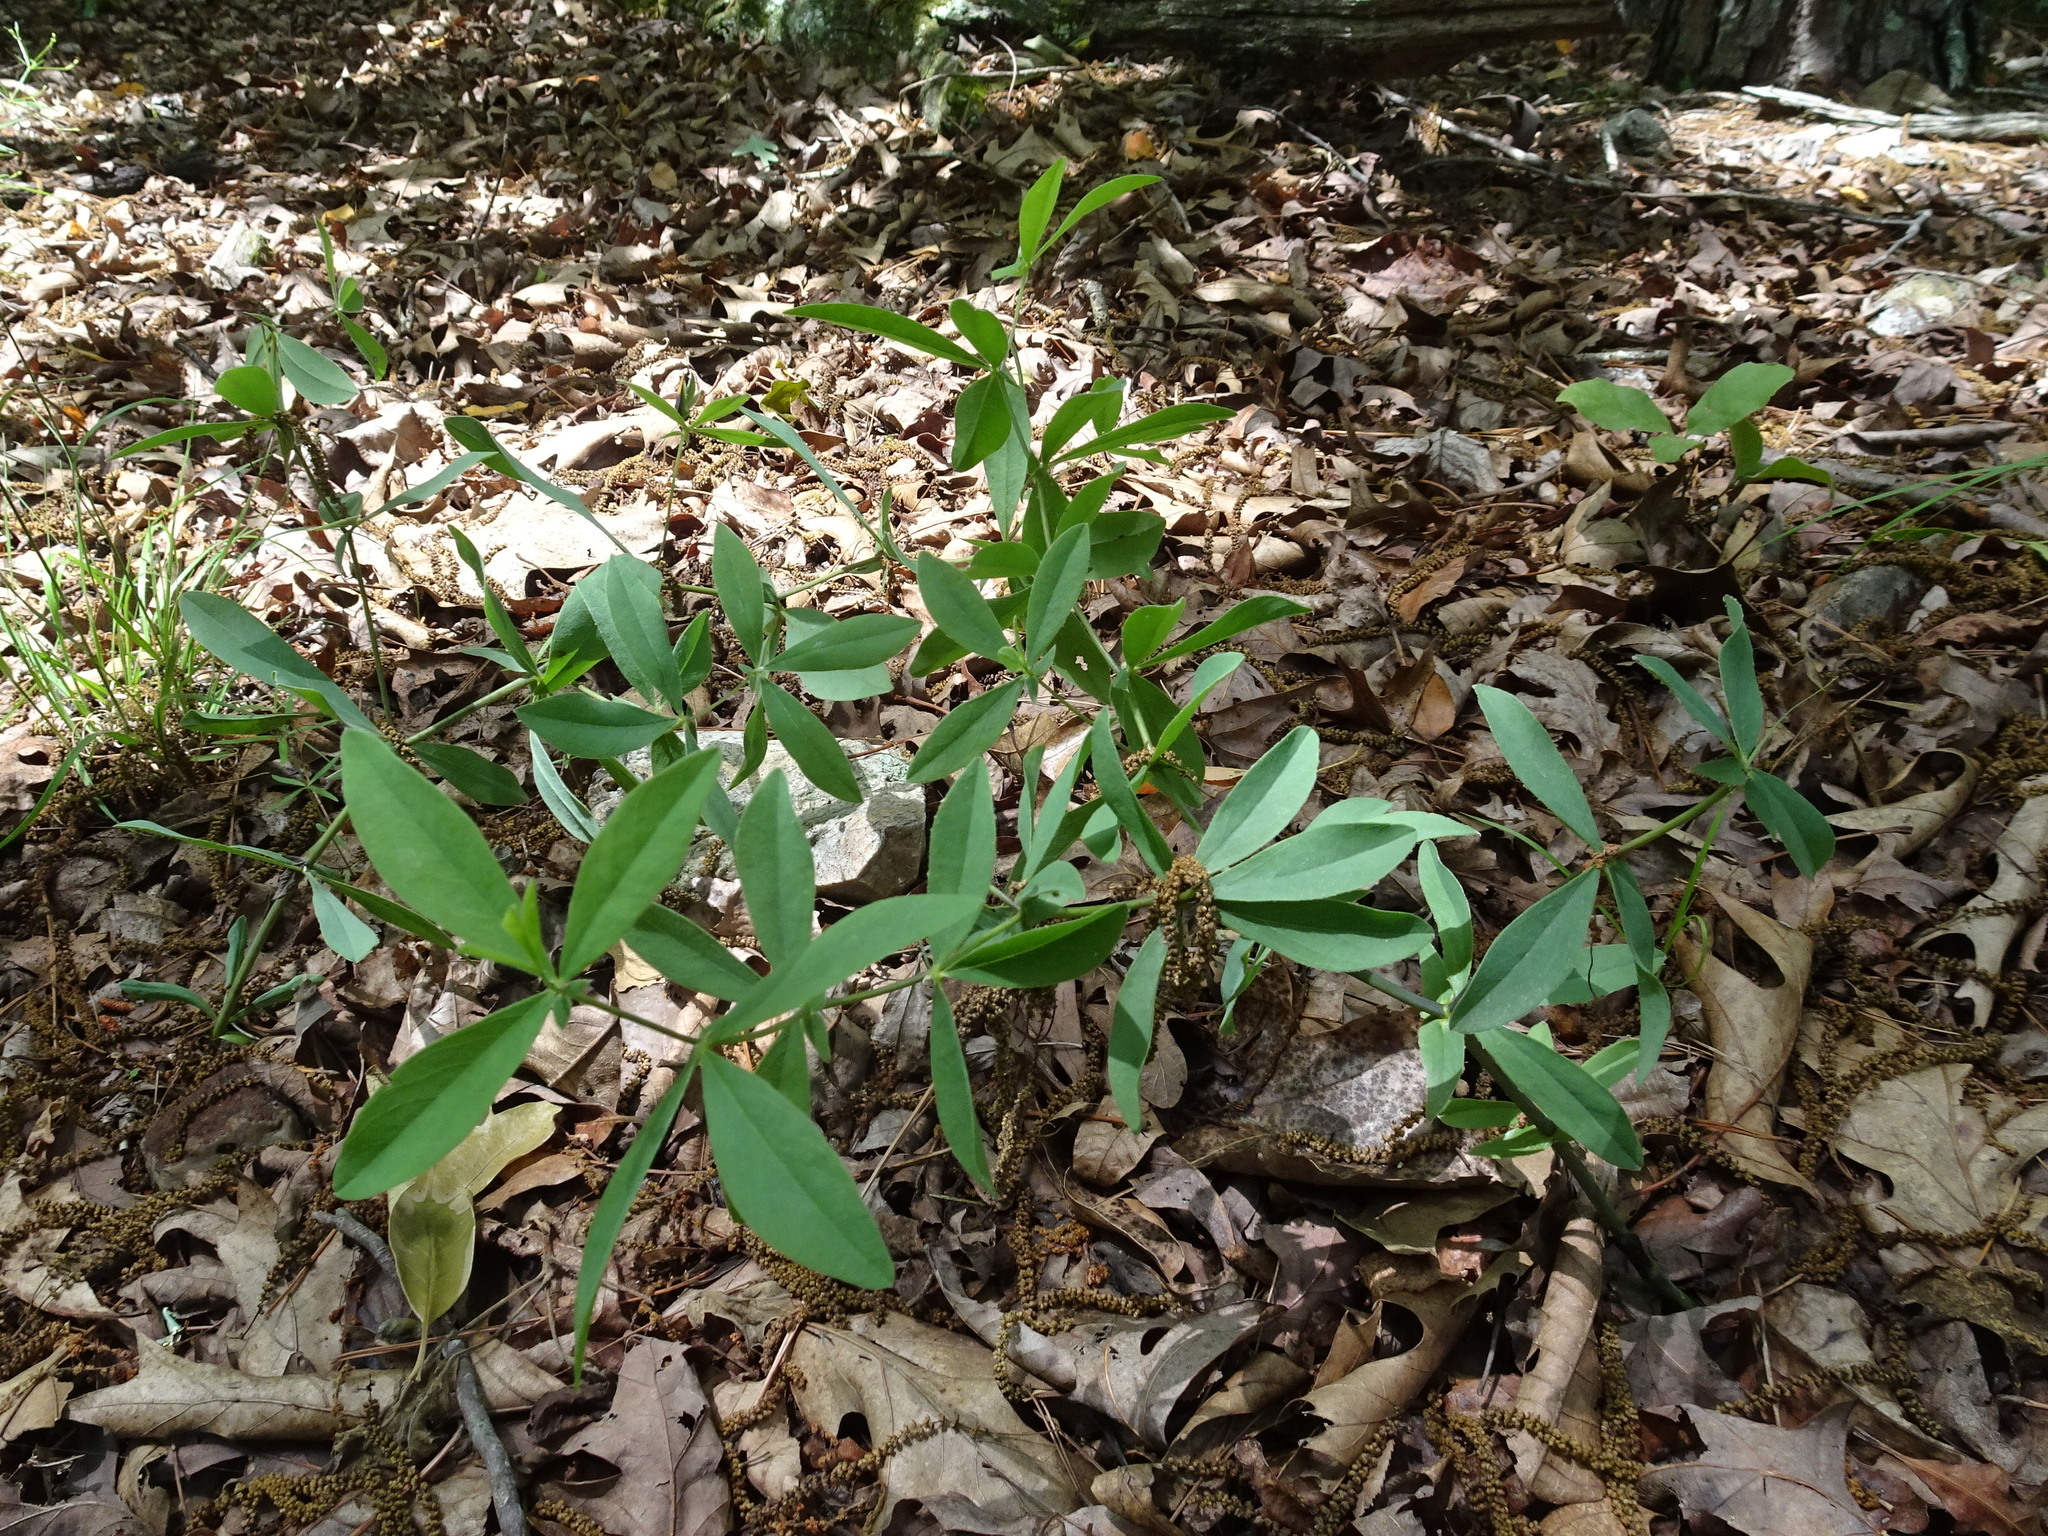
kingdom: Plantae
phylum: Tracheophyta
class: Magnoliopsida
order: Fabales
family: Fabaceae
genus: Baptisia
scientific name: Baptisia bracteata
